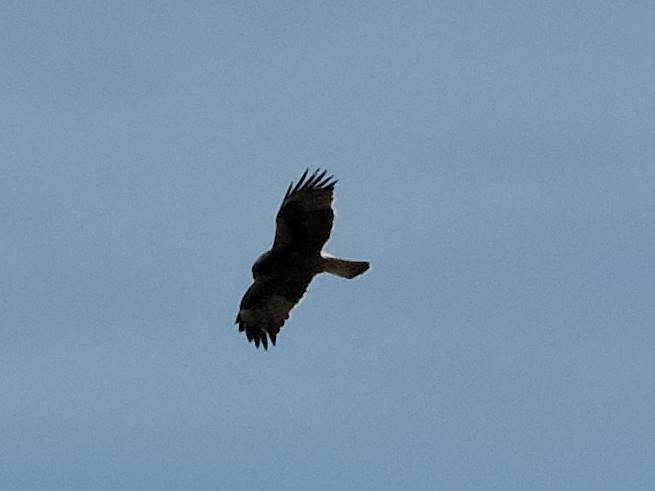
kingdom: Animalia
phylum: Chordata
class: Aves
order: Accipitriformes
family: Accipitridae
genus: Hieraaetus
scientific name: Hieraaetus pennatus
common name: Booted eagle
